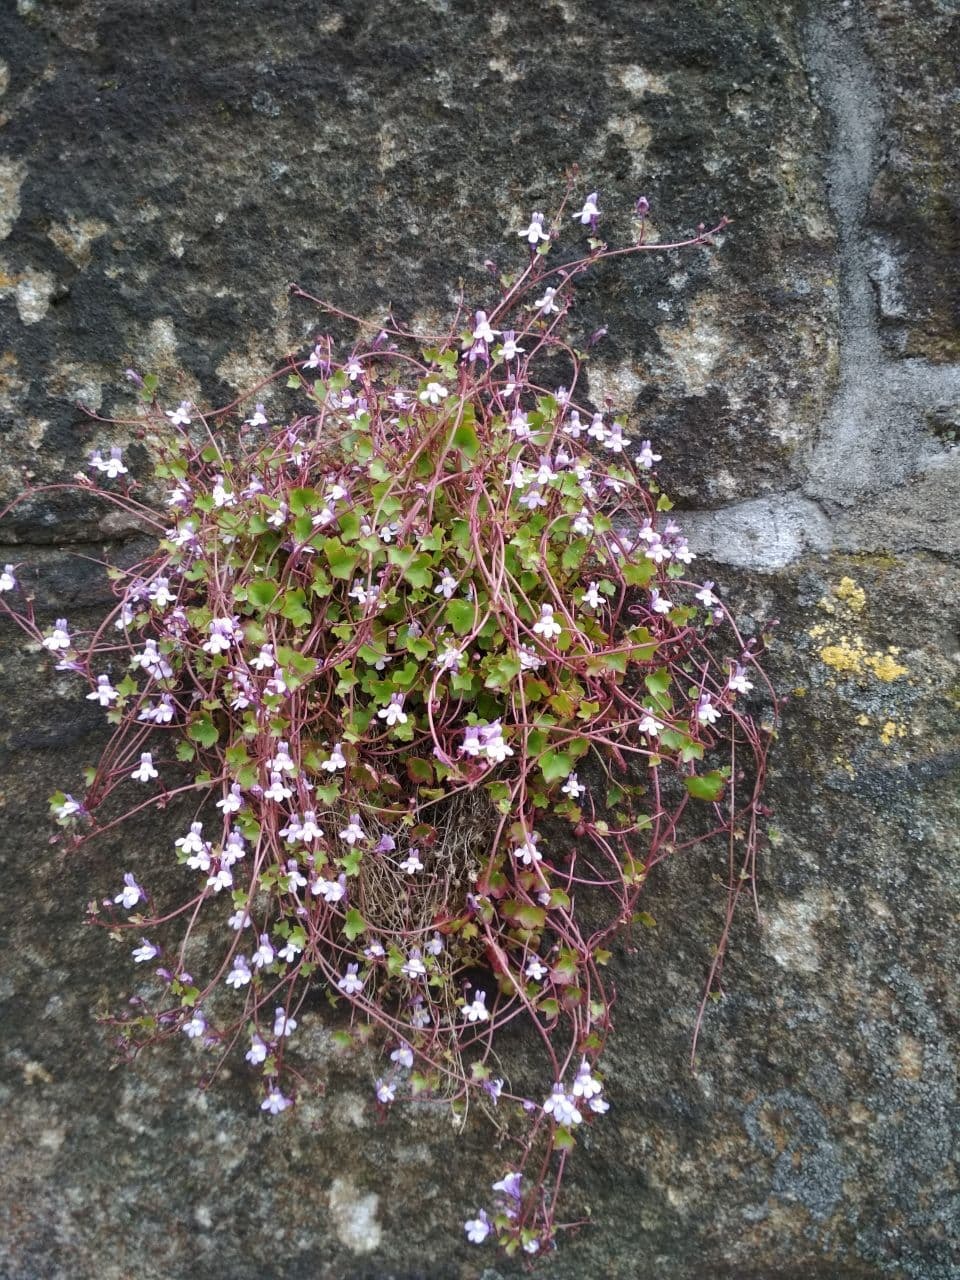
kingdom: Plantae
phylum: Tracheophyta
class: Magnoliopsida
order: Lamiales
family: Plantaginaceae
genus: Cymbalaria
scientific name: Cymbalaria muralis
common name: Ivy-leaved toadflax
